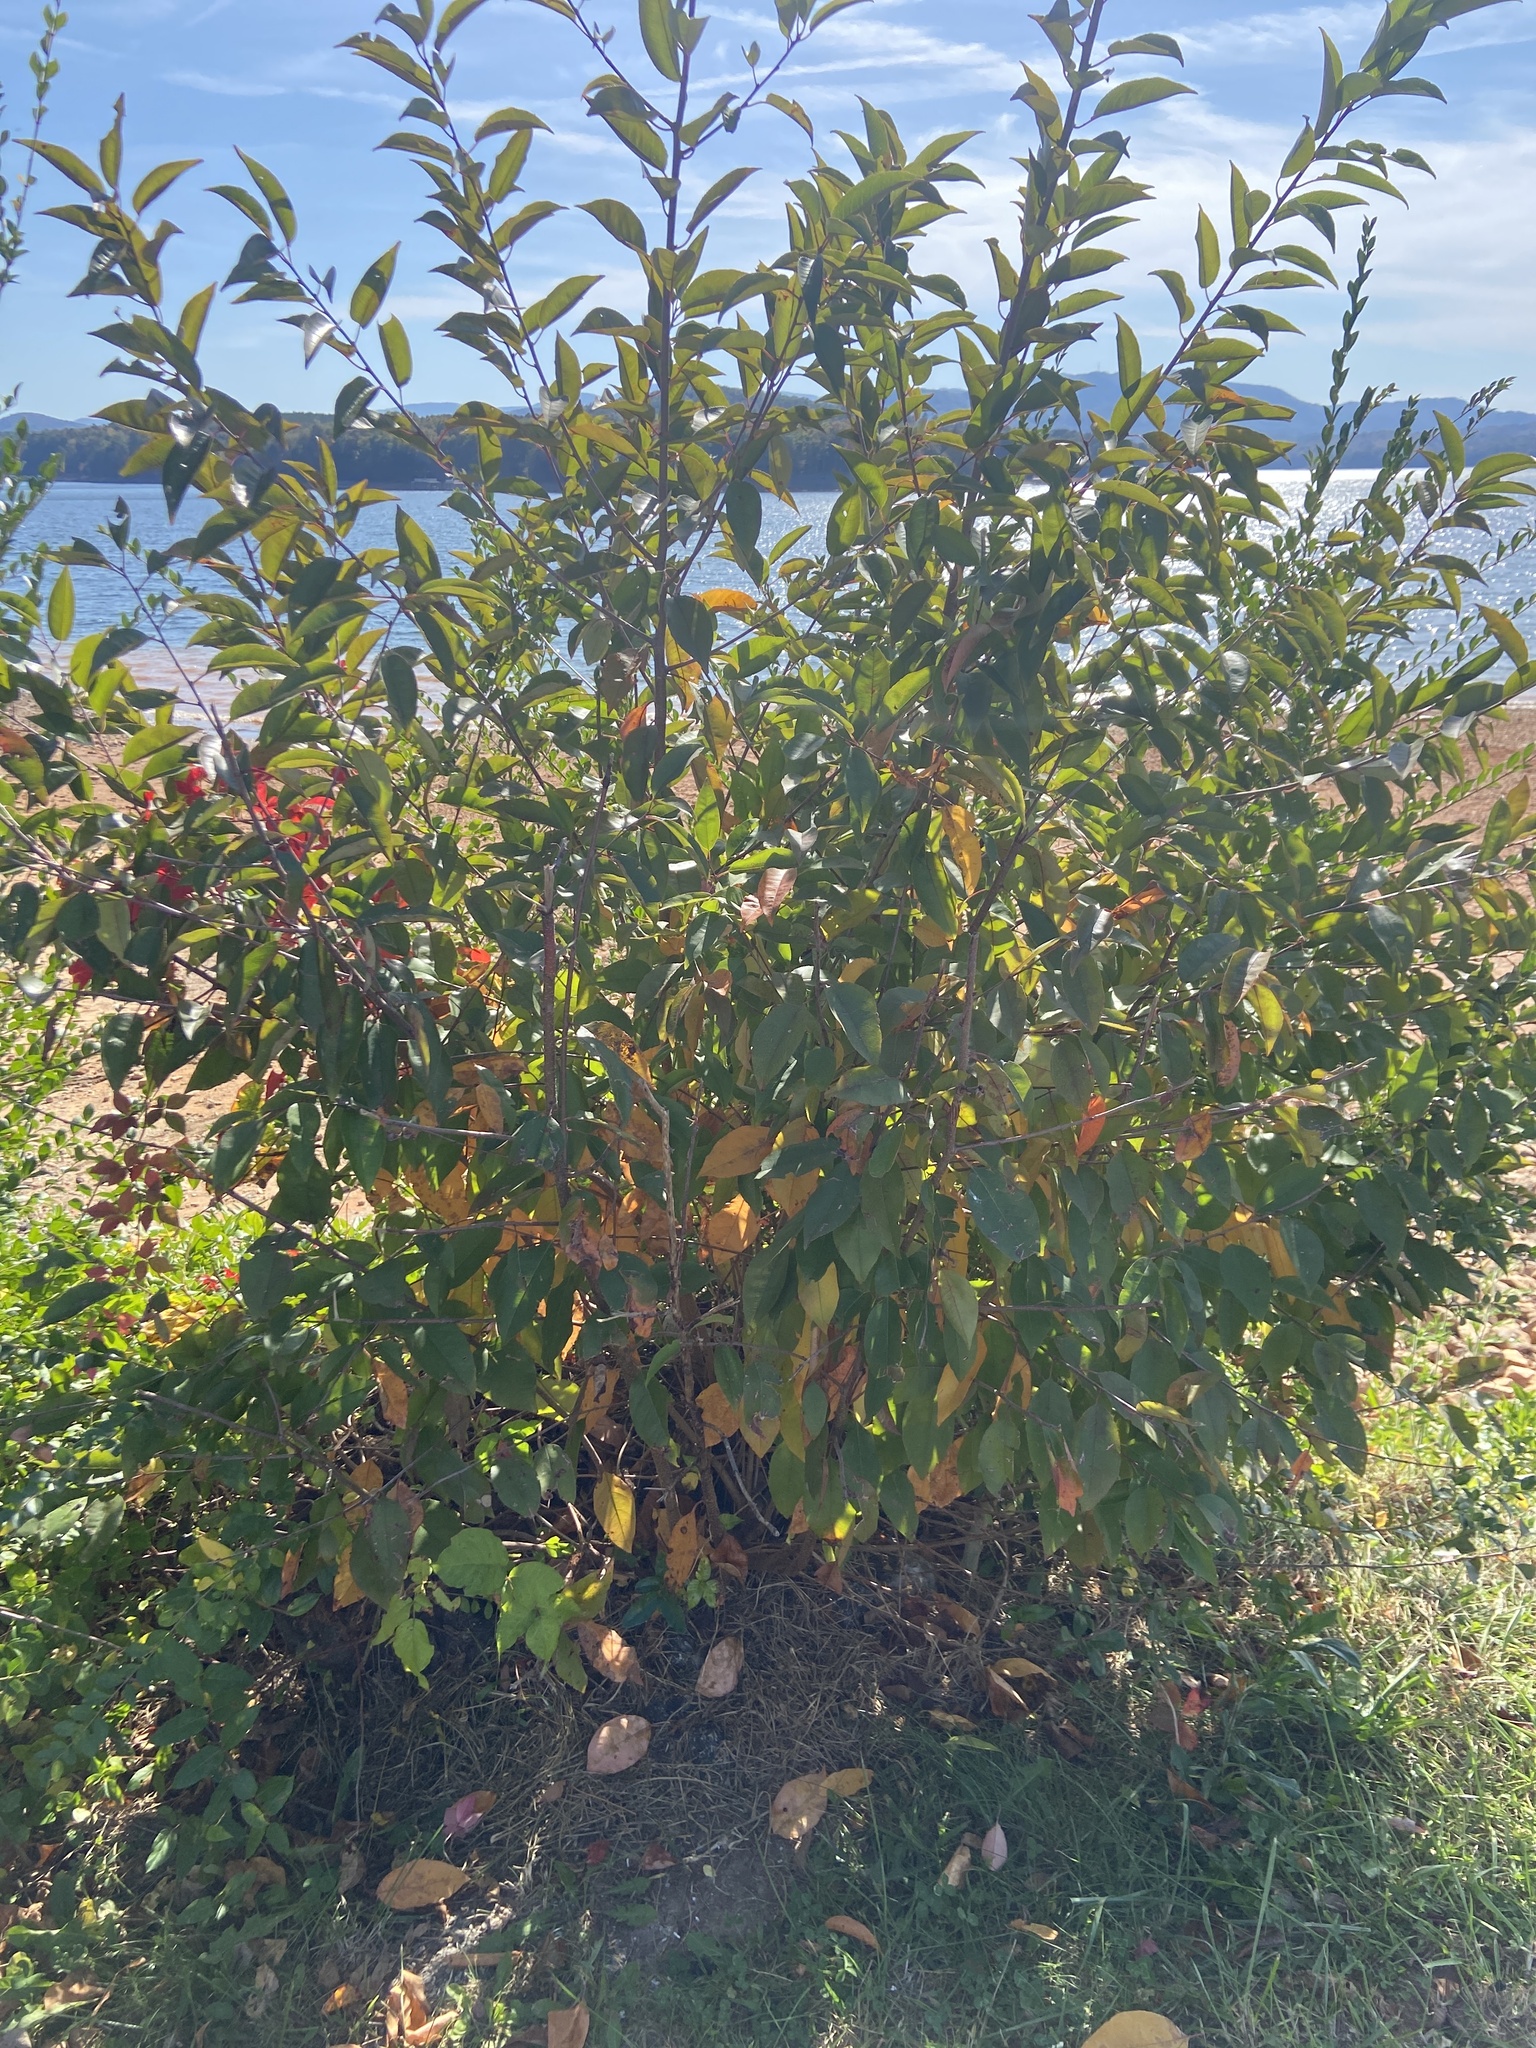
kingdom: Plantae
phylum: Tracheophyta
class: Magnoliopsida
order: Rosales
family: Rosaceae
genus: Prunus
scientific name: Prunus serotina
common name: Black cherry
